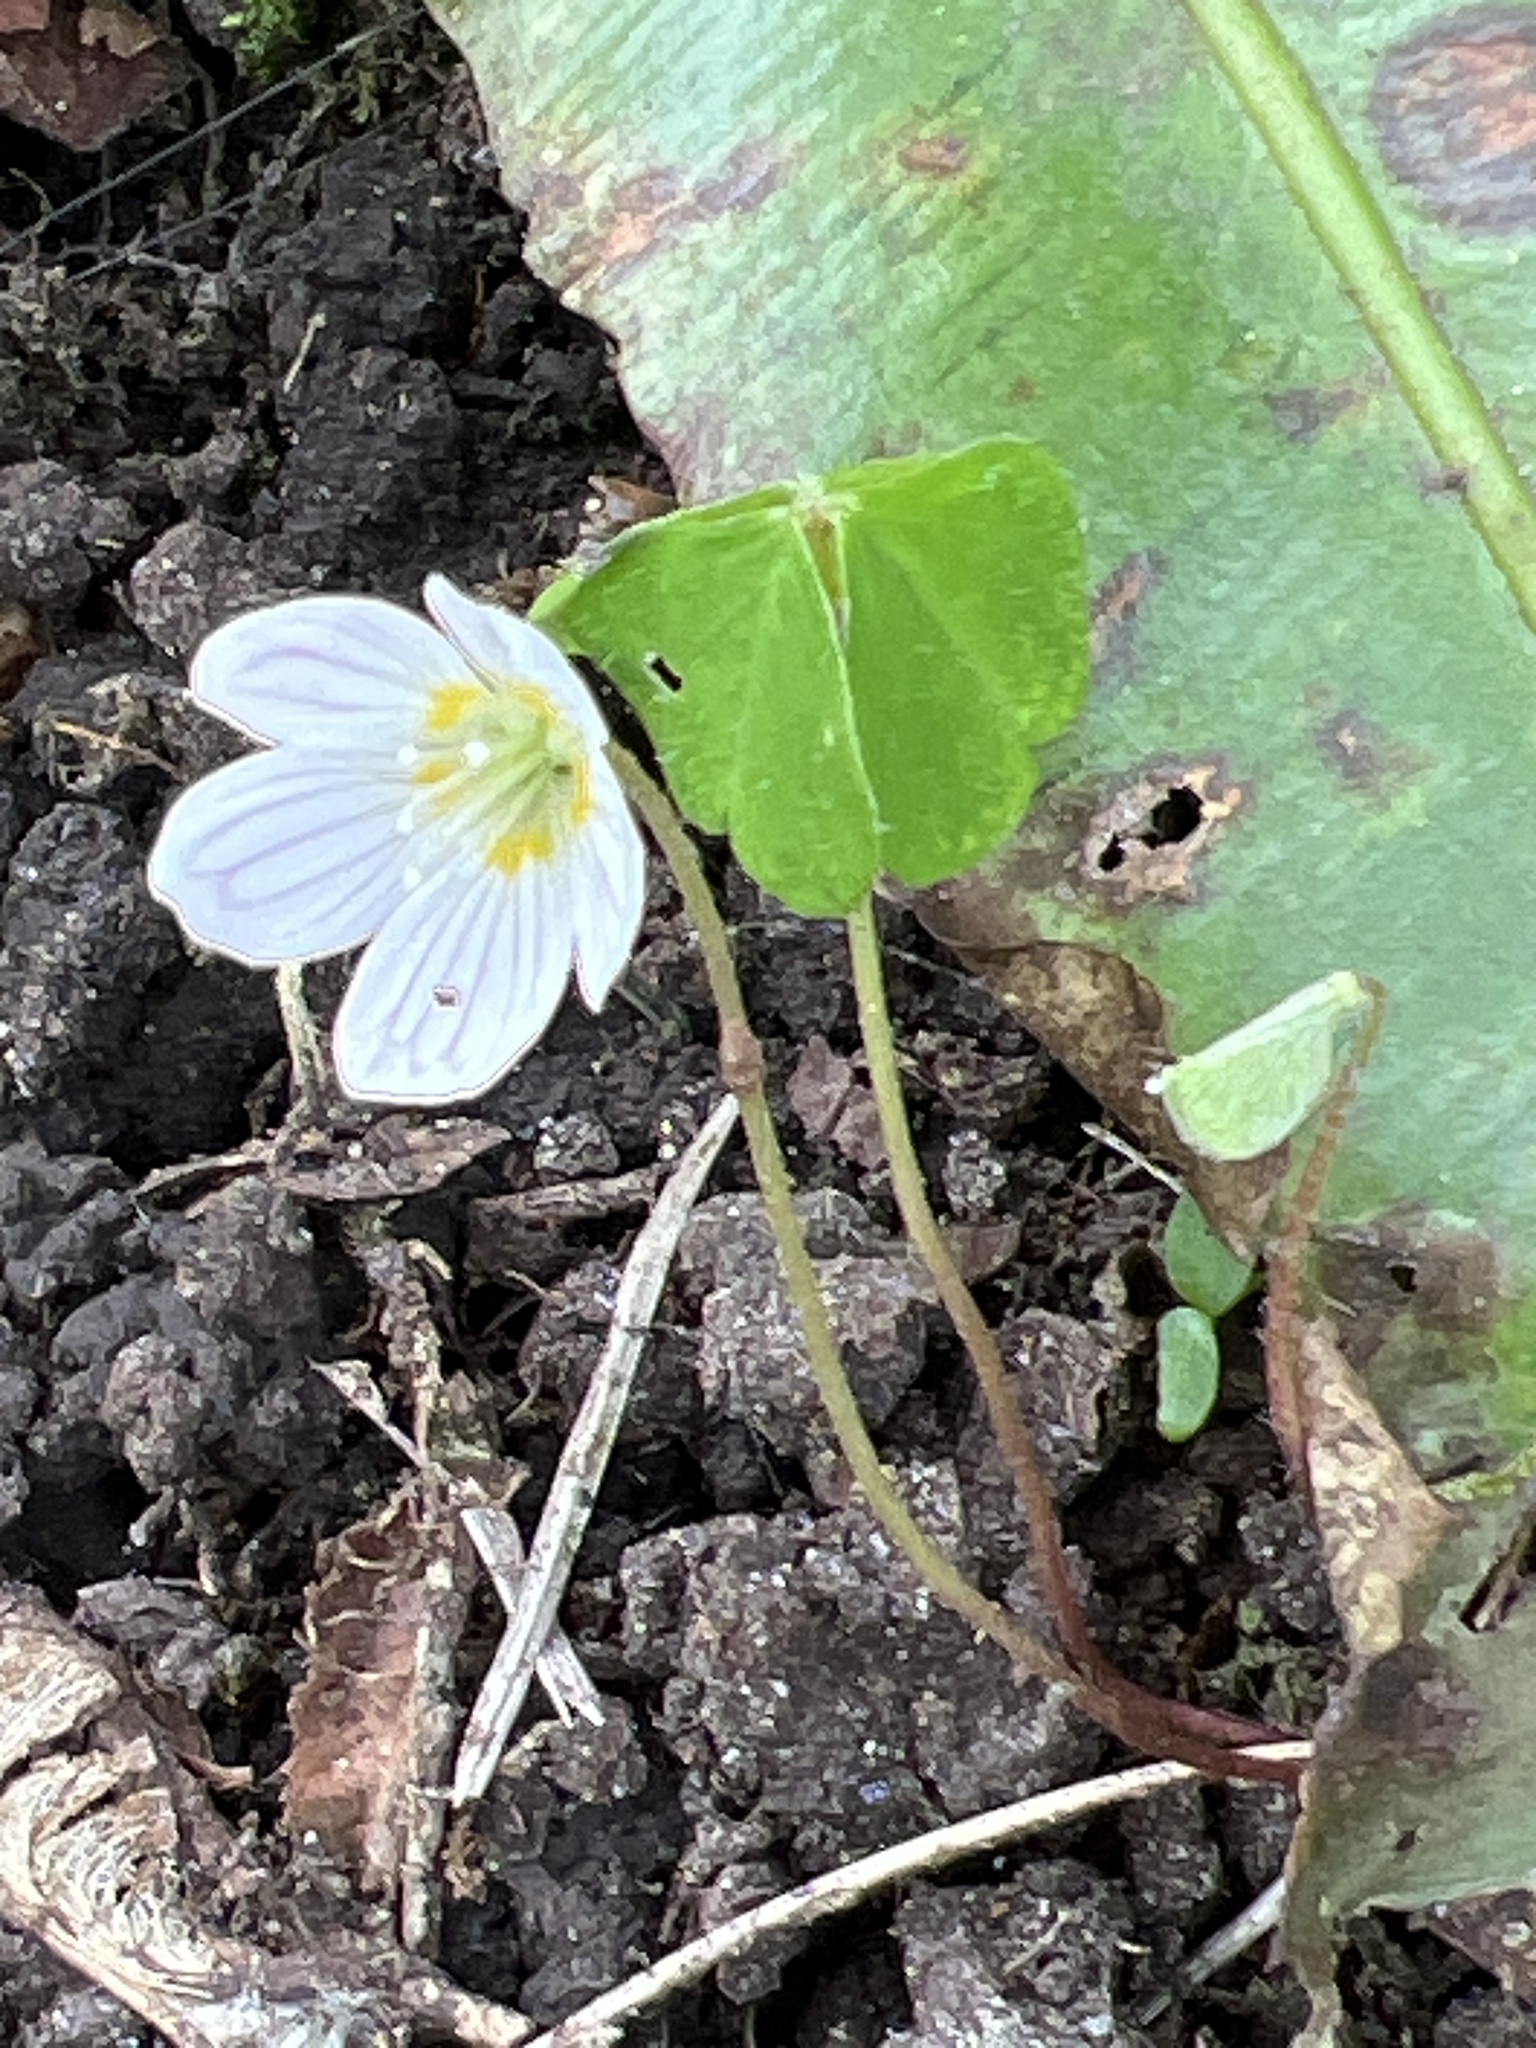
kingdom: Plantae
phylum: Tracheophyta
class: Magnoliopsida
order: Oxalidales
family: Oxalidaceae
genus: Oxalis
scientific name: Oxalis acetosella
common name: Wood-sorrel
